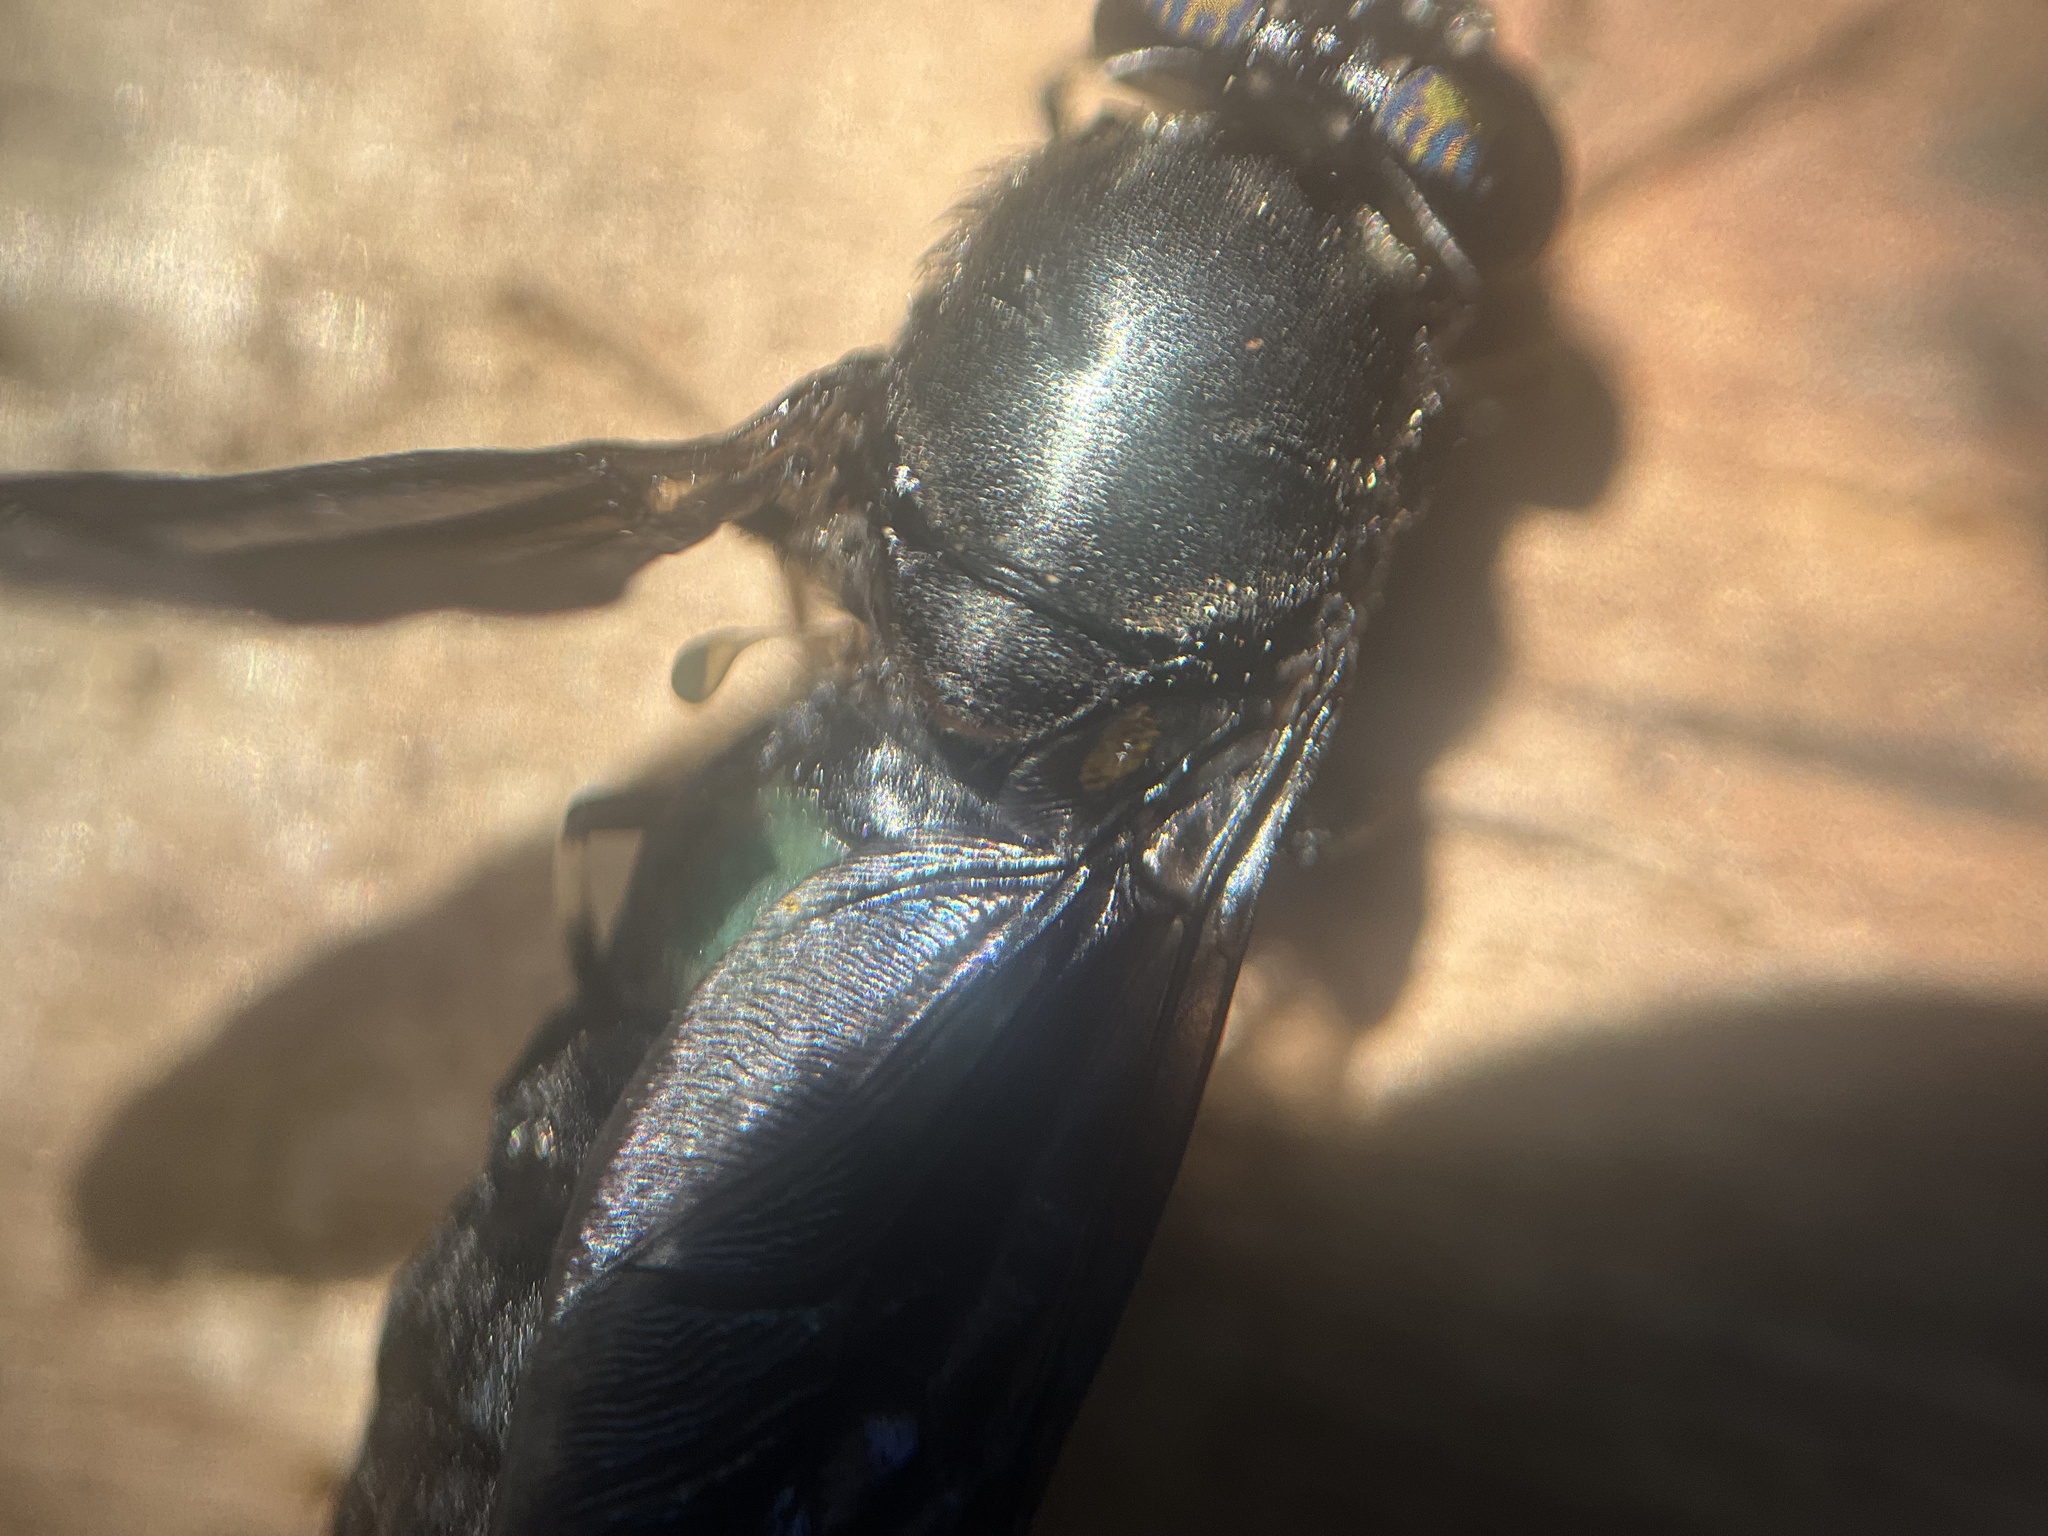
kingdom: Animalia
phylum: Arthropoda
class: Insecta
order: Diptera
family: Stratiomyidae
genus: Hermetia
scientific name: Hermetia illucens
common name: Black soldier fly
